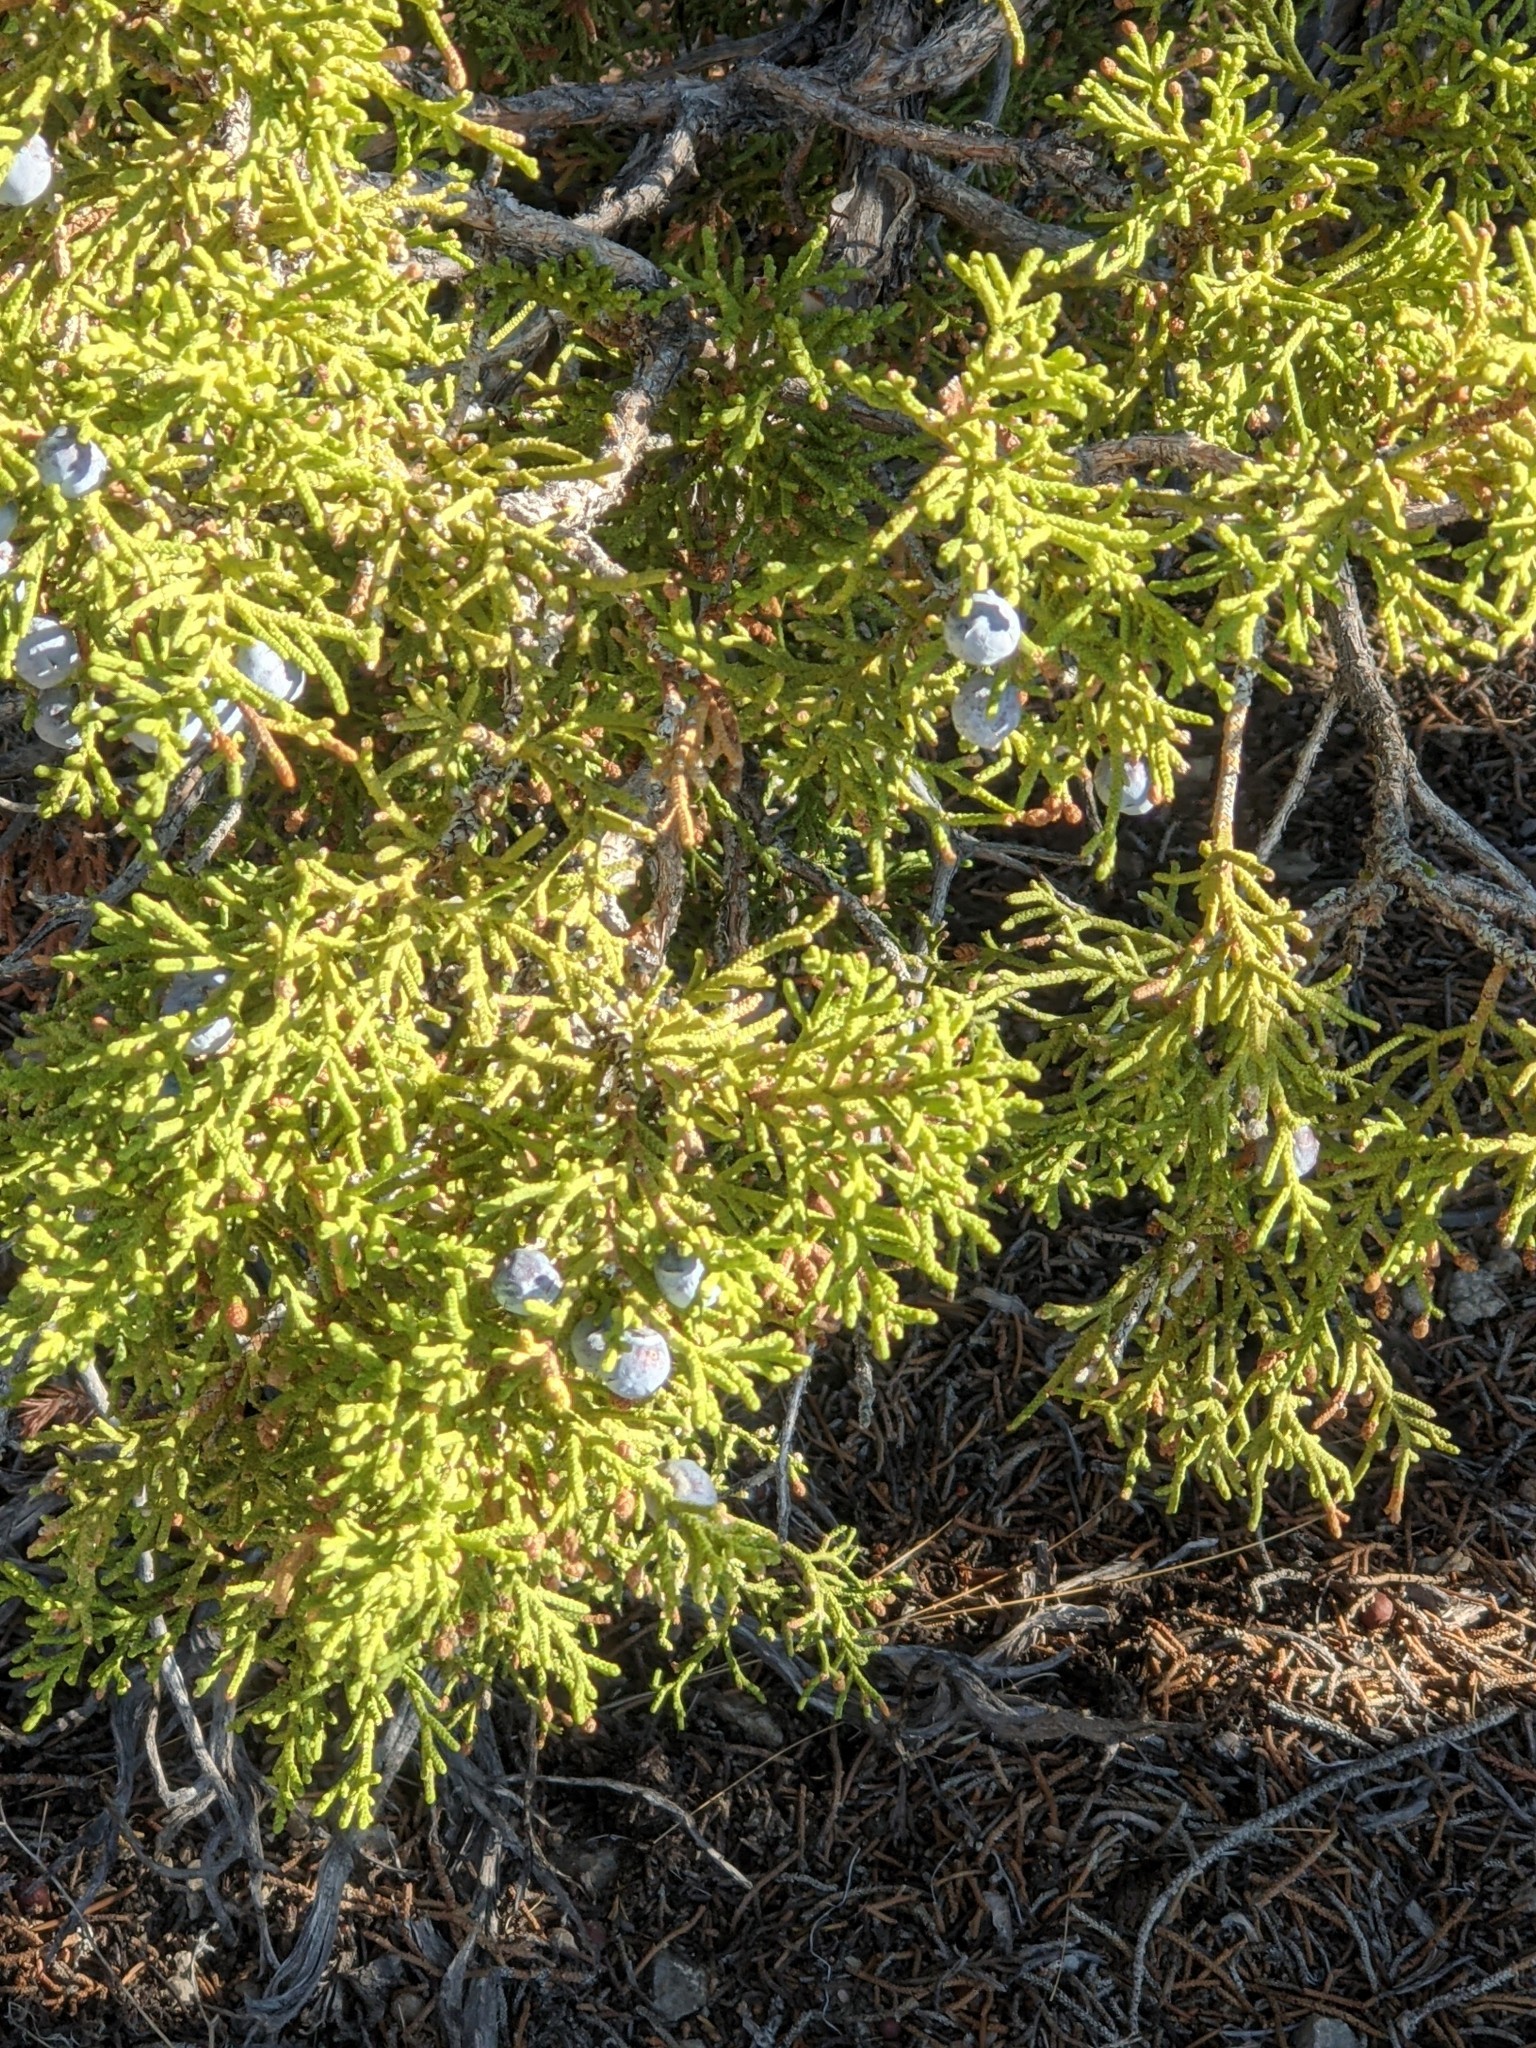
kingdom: Plantae
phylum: Tracheophyta
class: Pinopsida
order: Pinales
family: Cupressaceae
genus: Juniperus
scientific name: Juniperus osteosperma
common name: Utah juniper
